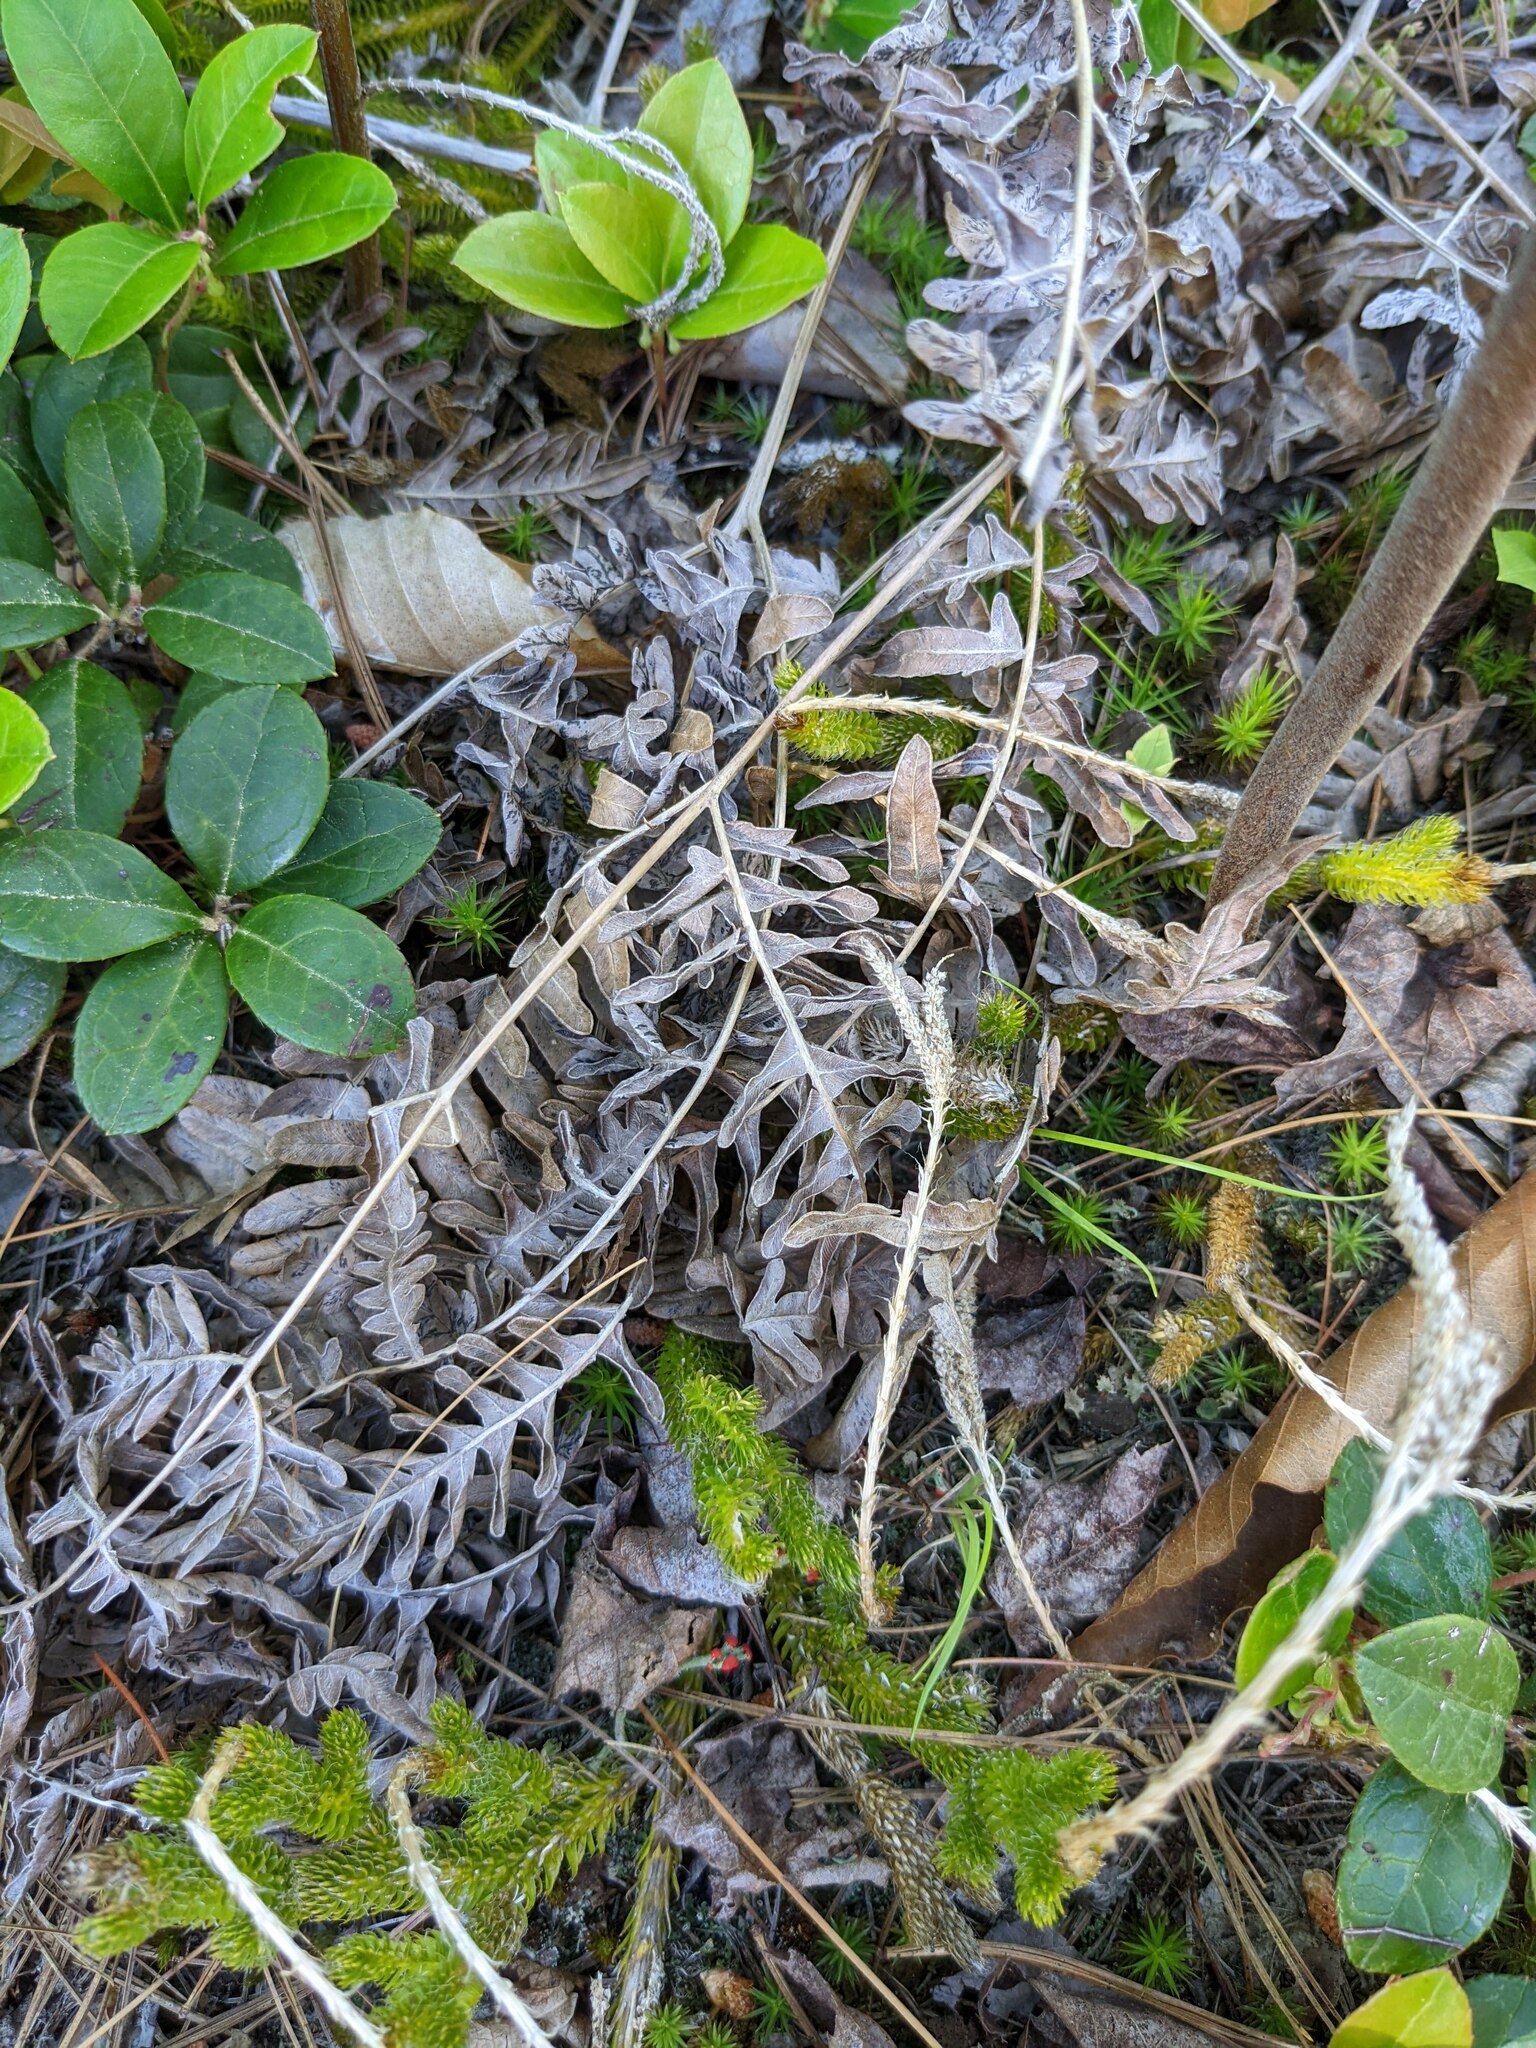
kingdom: Plantae
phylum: Tracheophyta
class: Polypodiopsida
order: Polypodiales
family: Dennstaedtiaceae
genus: Pteridium
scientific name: Pteridium aquilinum
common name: Bracken
